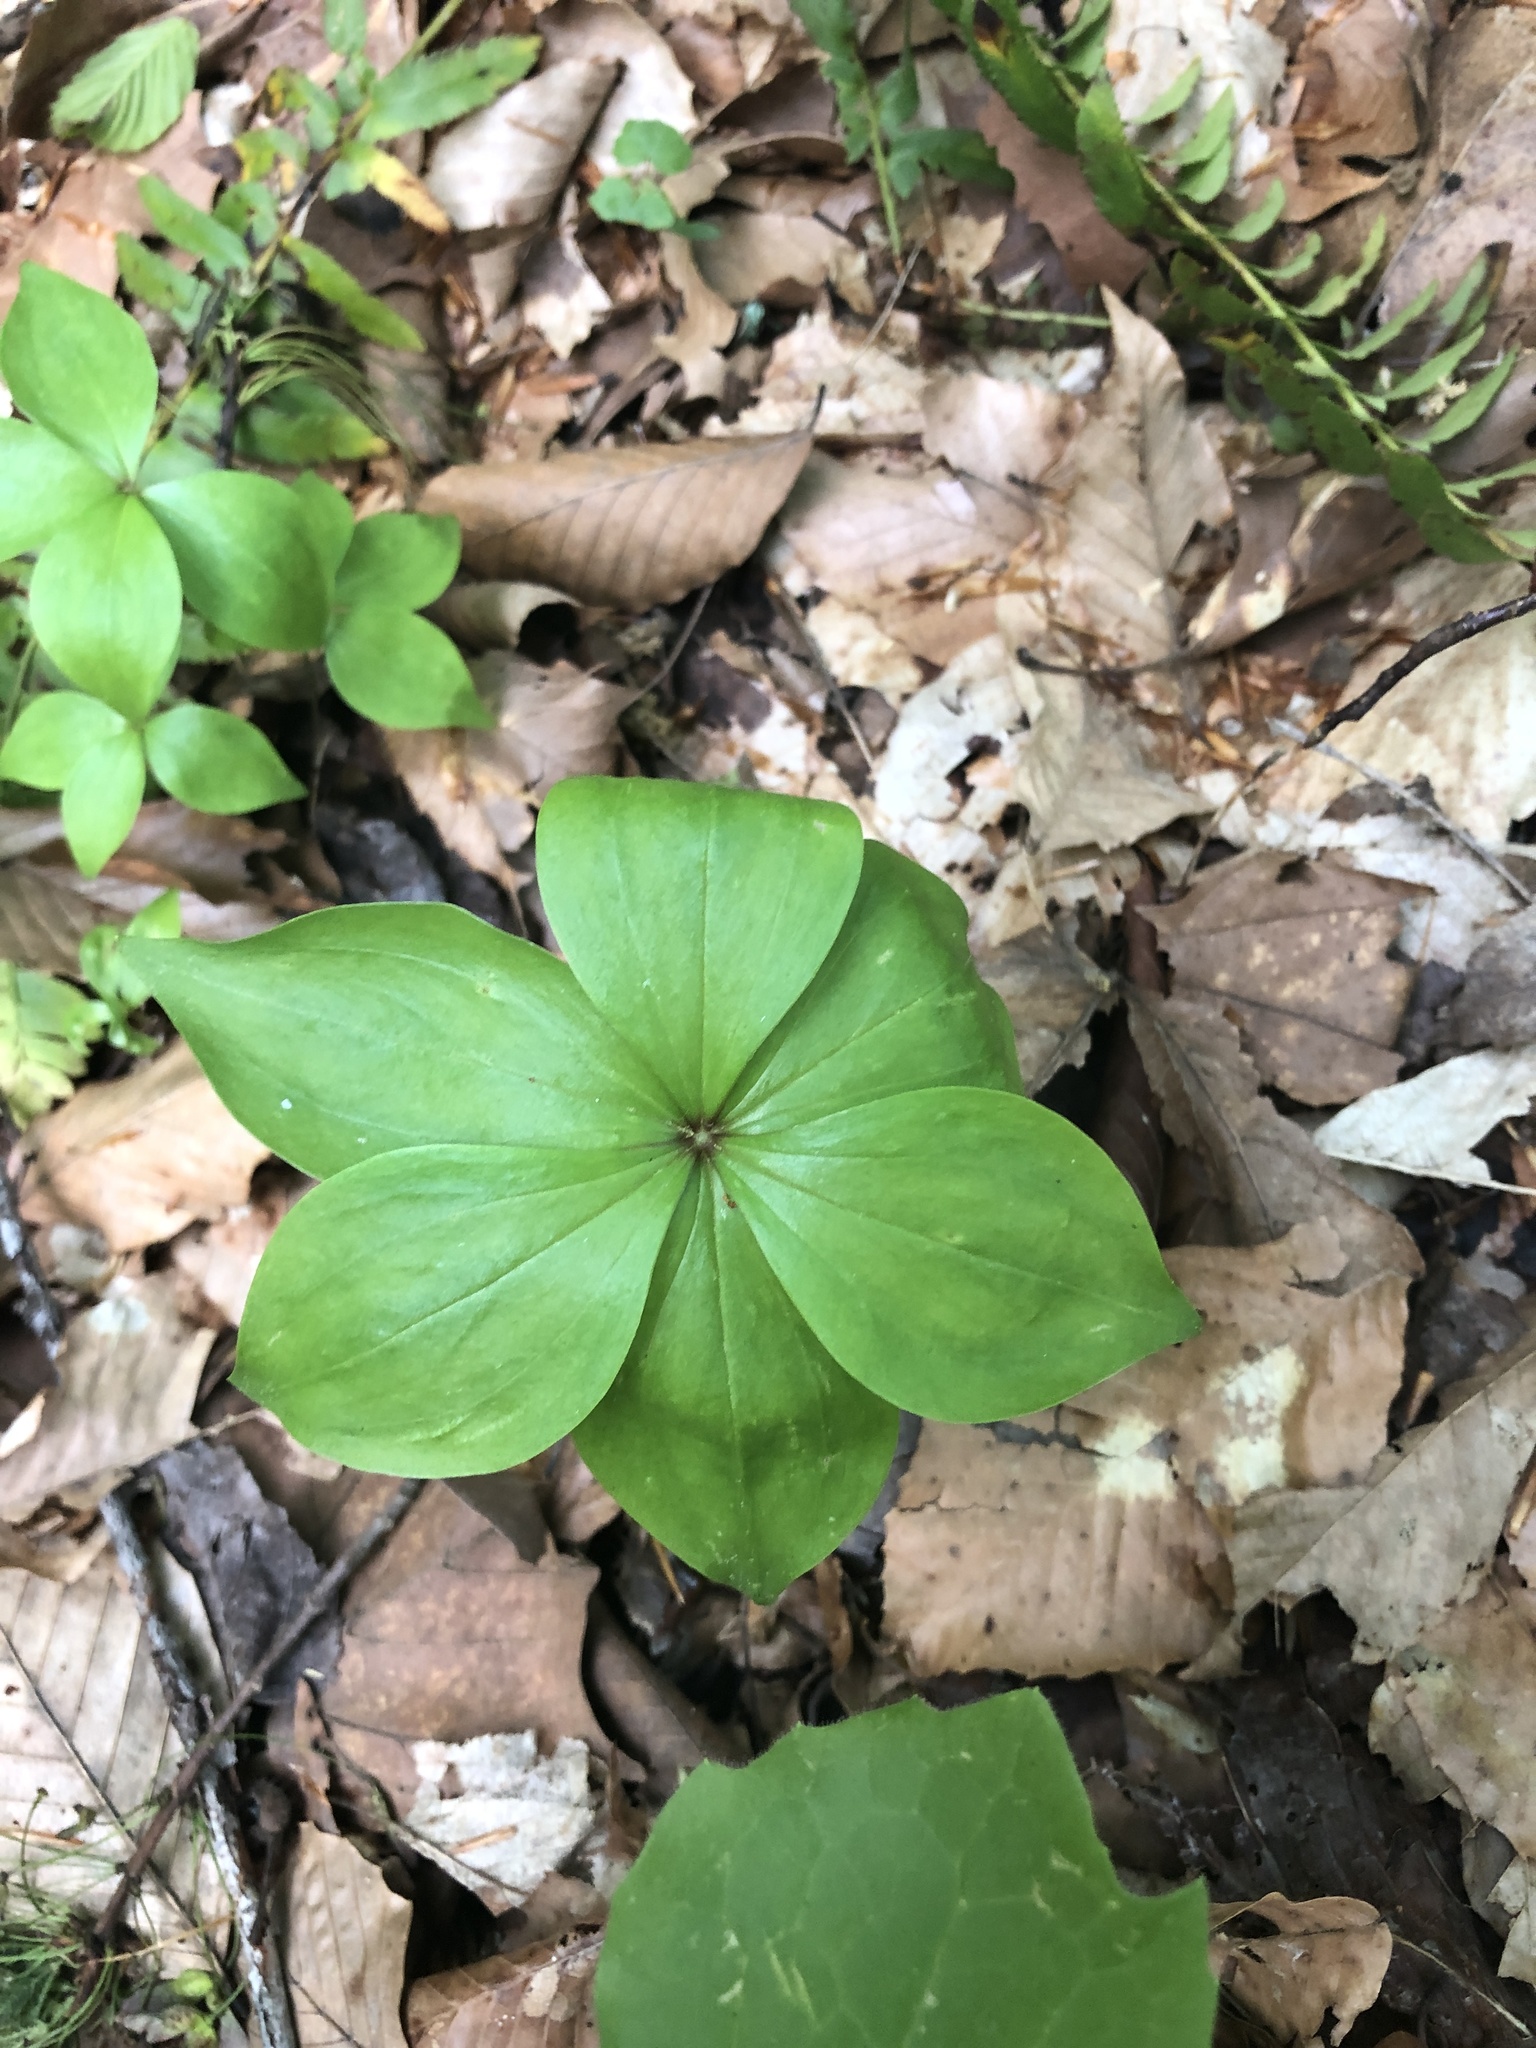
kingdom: Plantae
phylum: Tracheophyta
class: Liliopsida
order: Liliales
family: Liliaceae
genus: Medeola
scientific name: Medeola virginiana
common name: Indian cucumber-root
